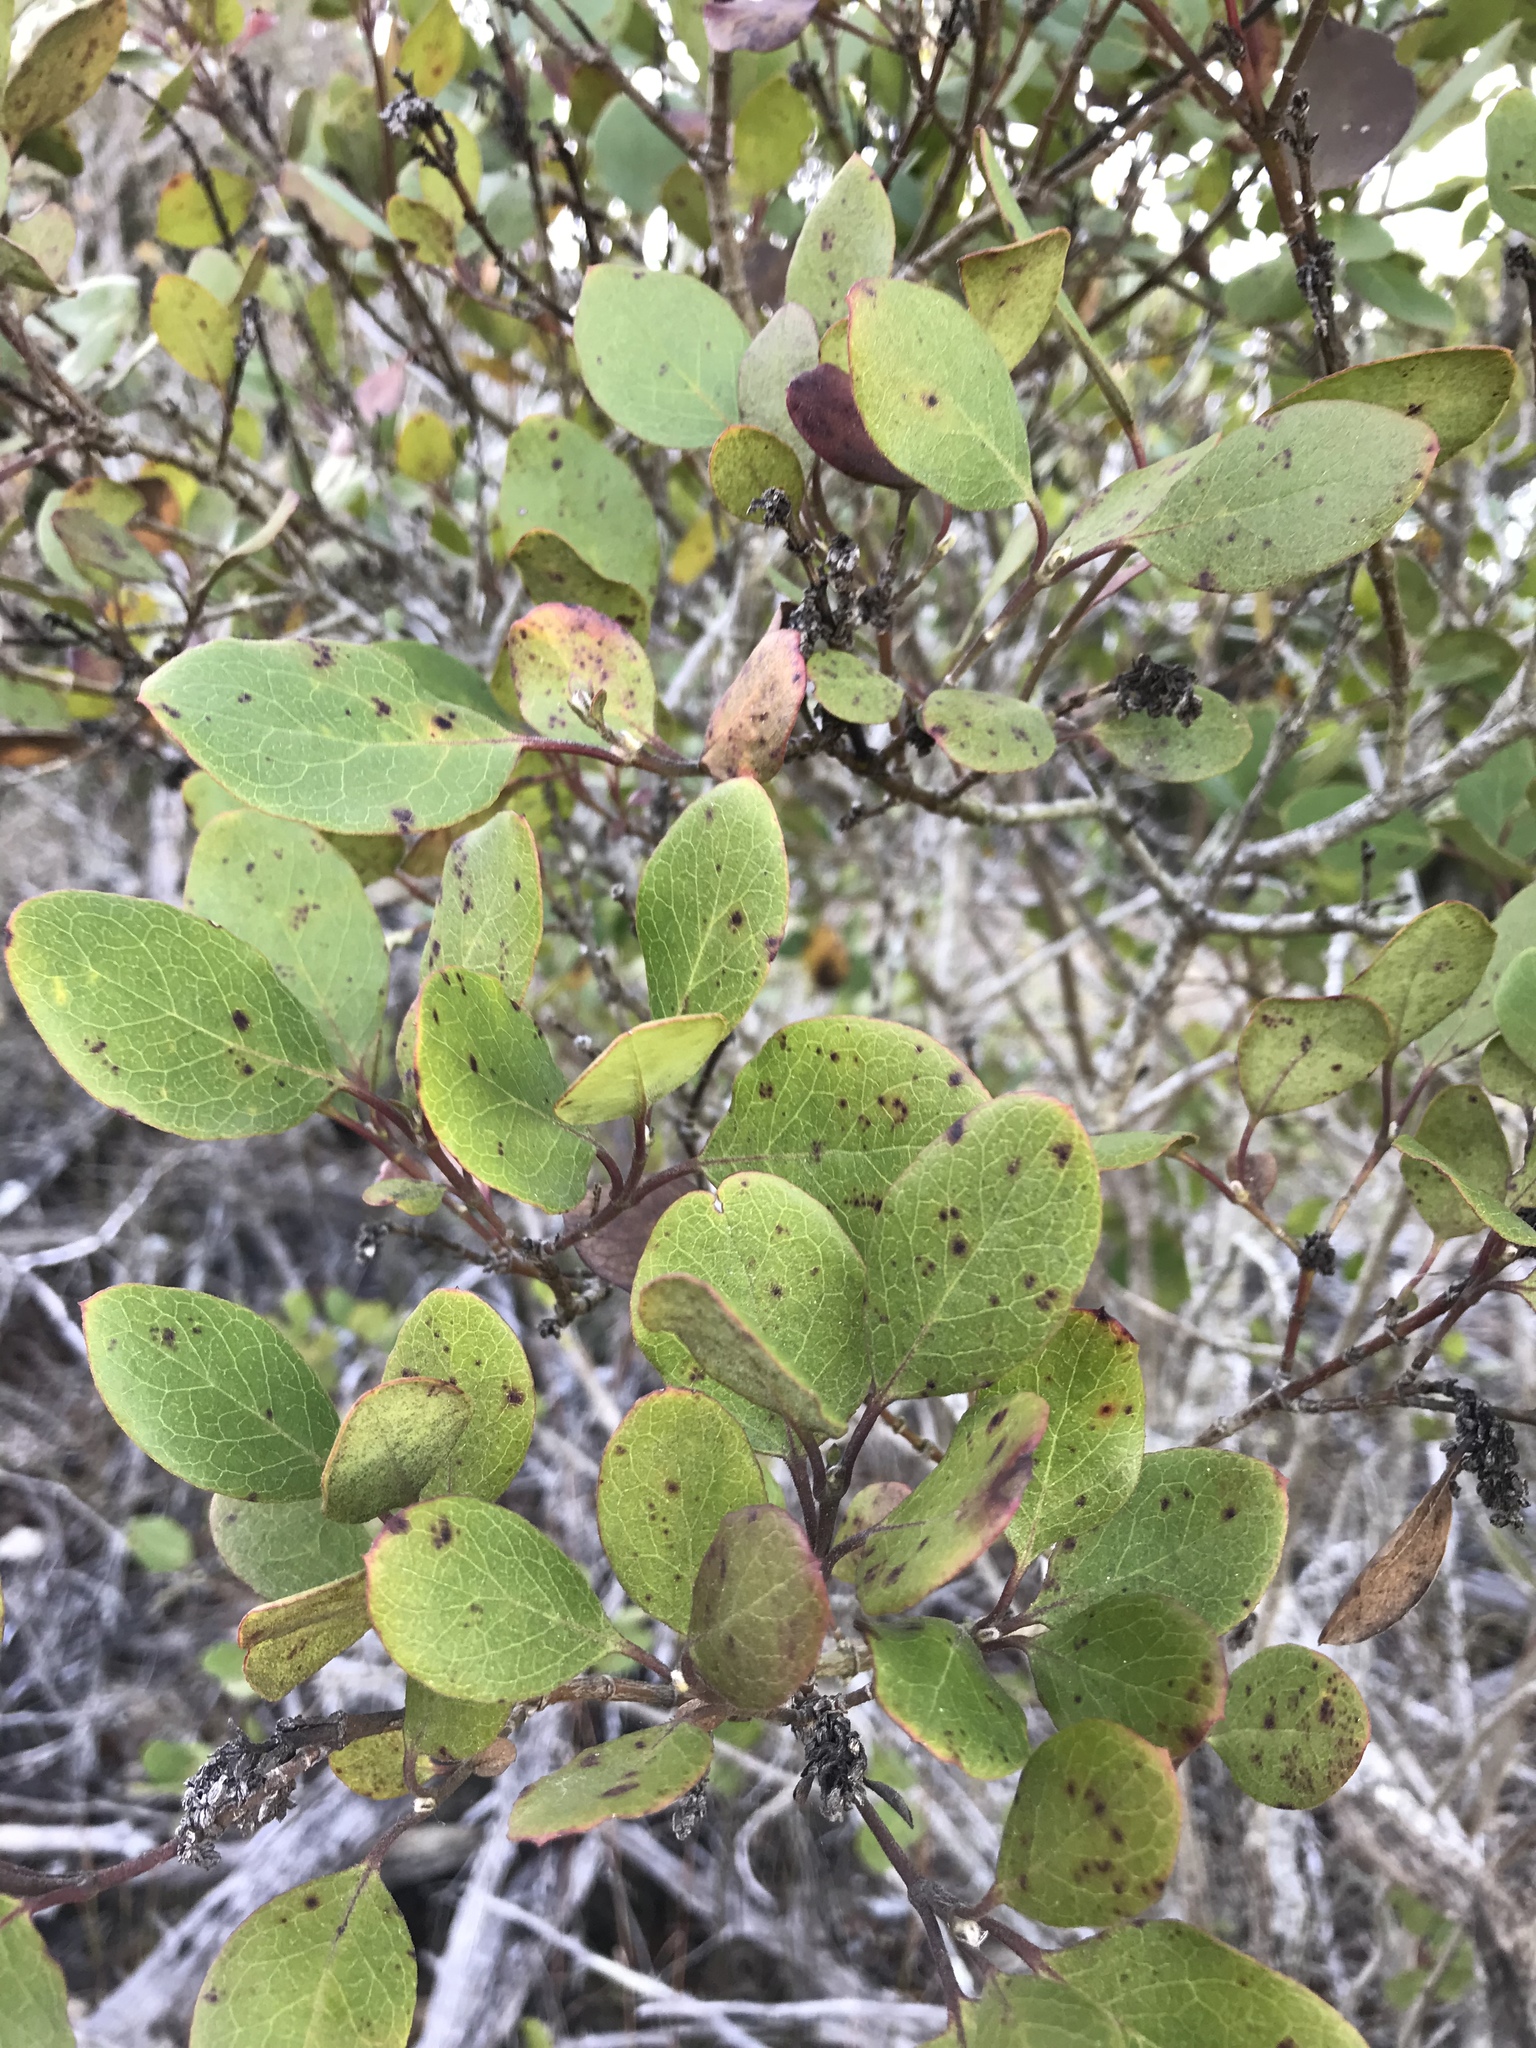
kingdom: Plantae
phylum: Tracheophyta
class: Magnoliopsida
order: Garryales
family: Garryaceae
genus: Garrya
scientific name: Garrya lindheimeri
